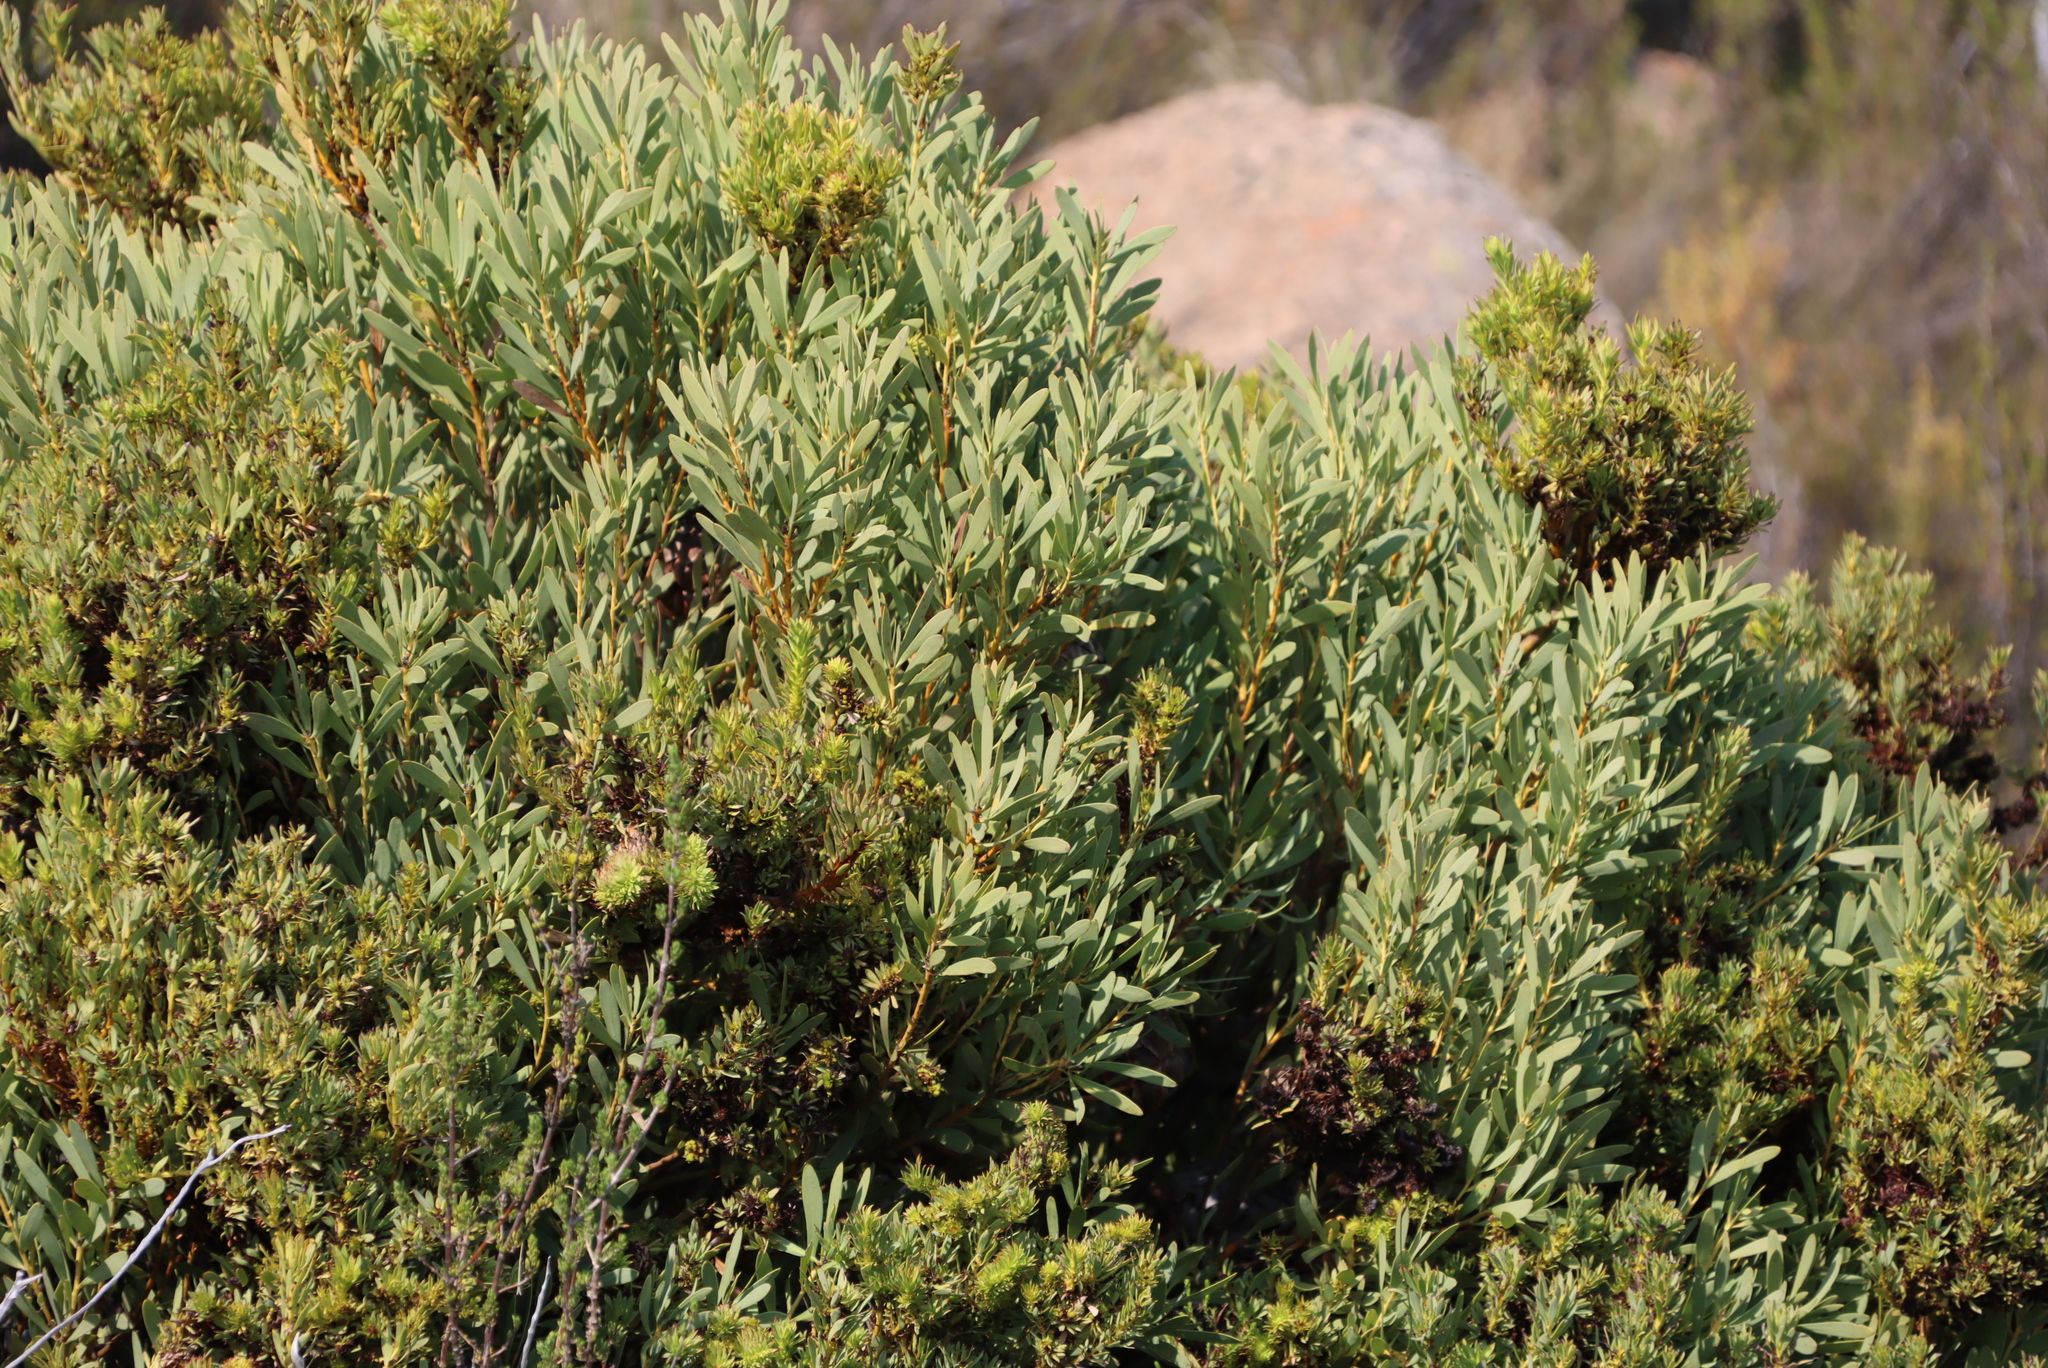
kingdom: Bacteria
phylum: Firmicutes
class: Bacilli
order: Acholeplasmatales
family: Acholeplasmataceae
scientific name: Acholeplasmataceae
